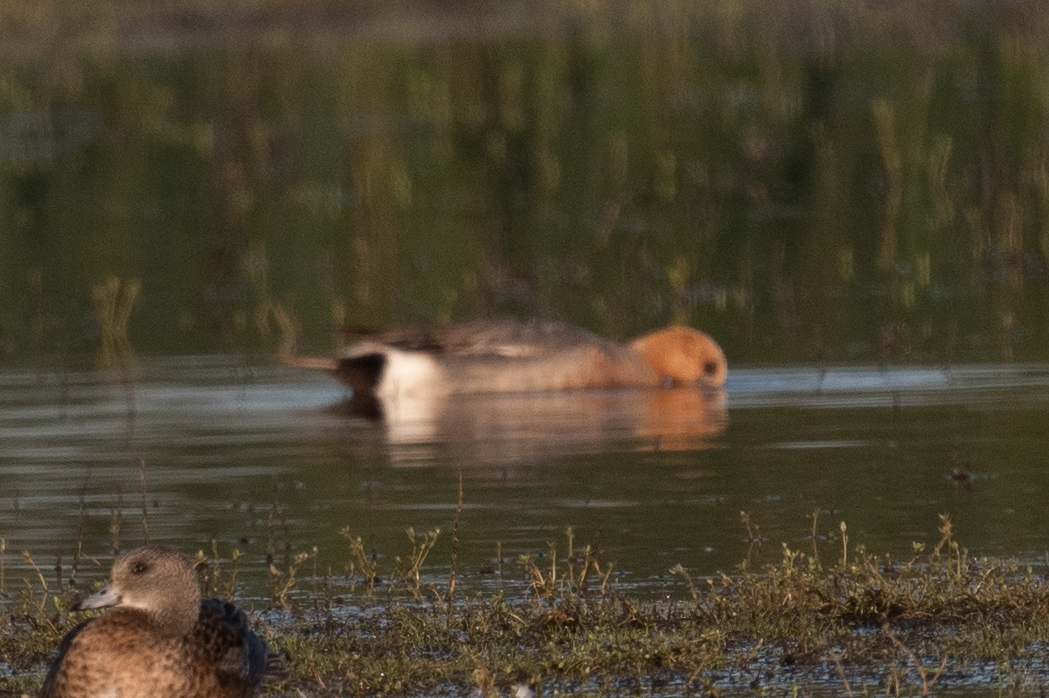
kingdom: Animalia
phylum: Chordata
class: Aves
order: Anseriformes
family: Anatidae
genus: Mareca
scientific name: Mareca strepera
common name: Gadwall
